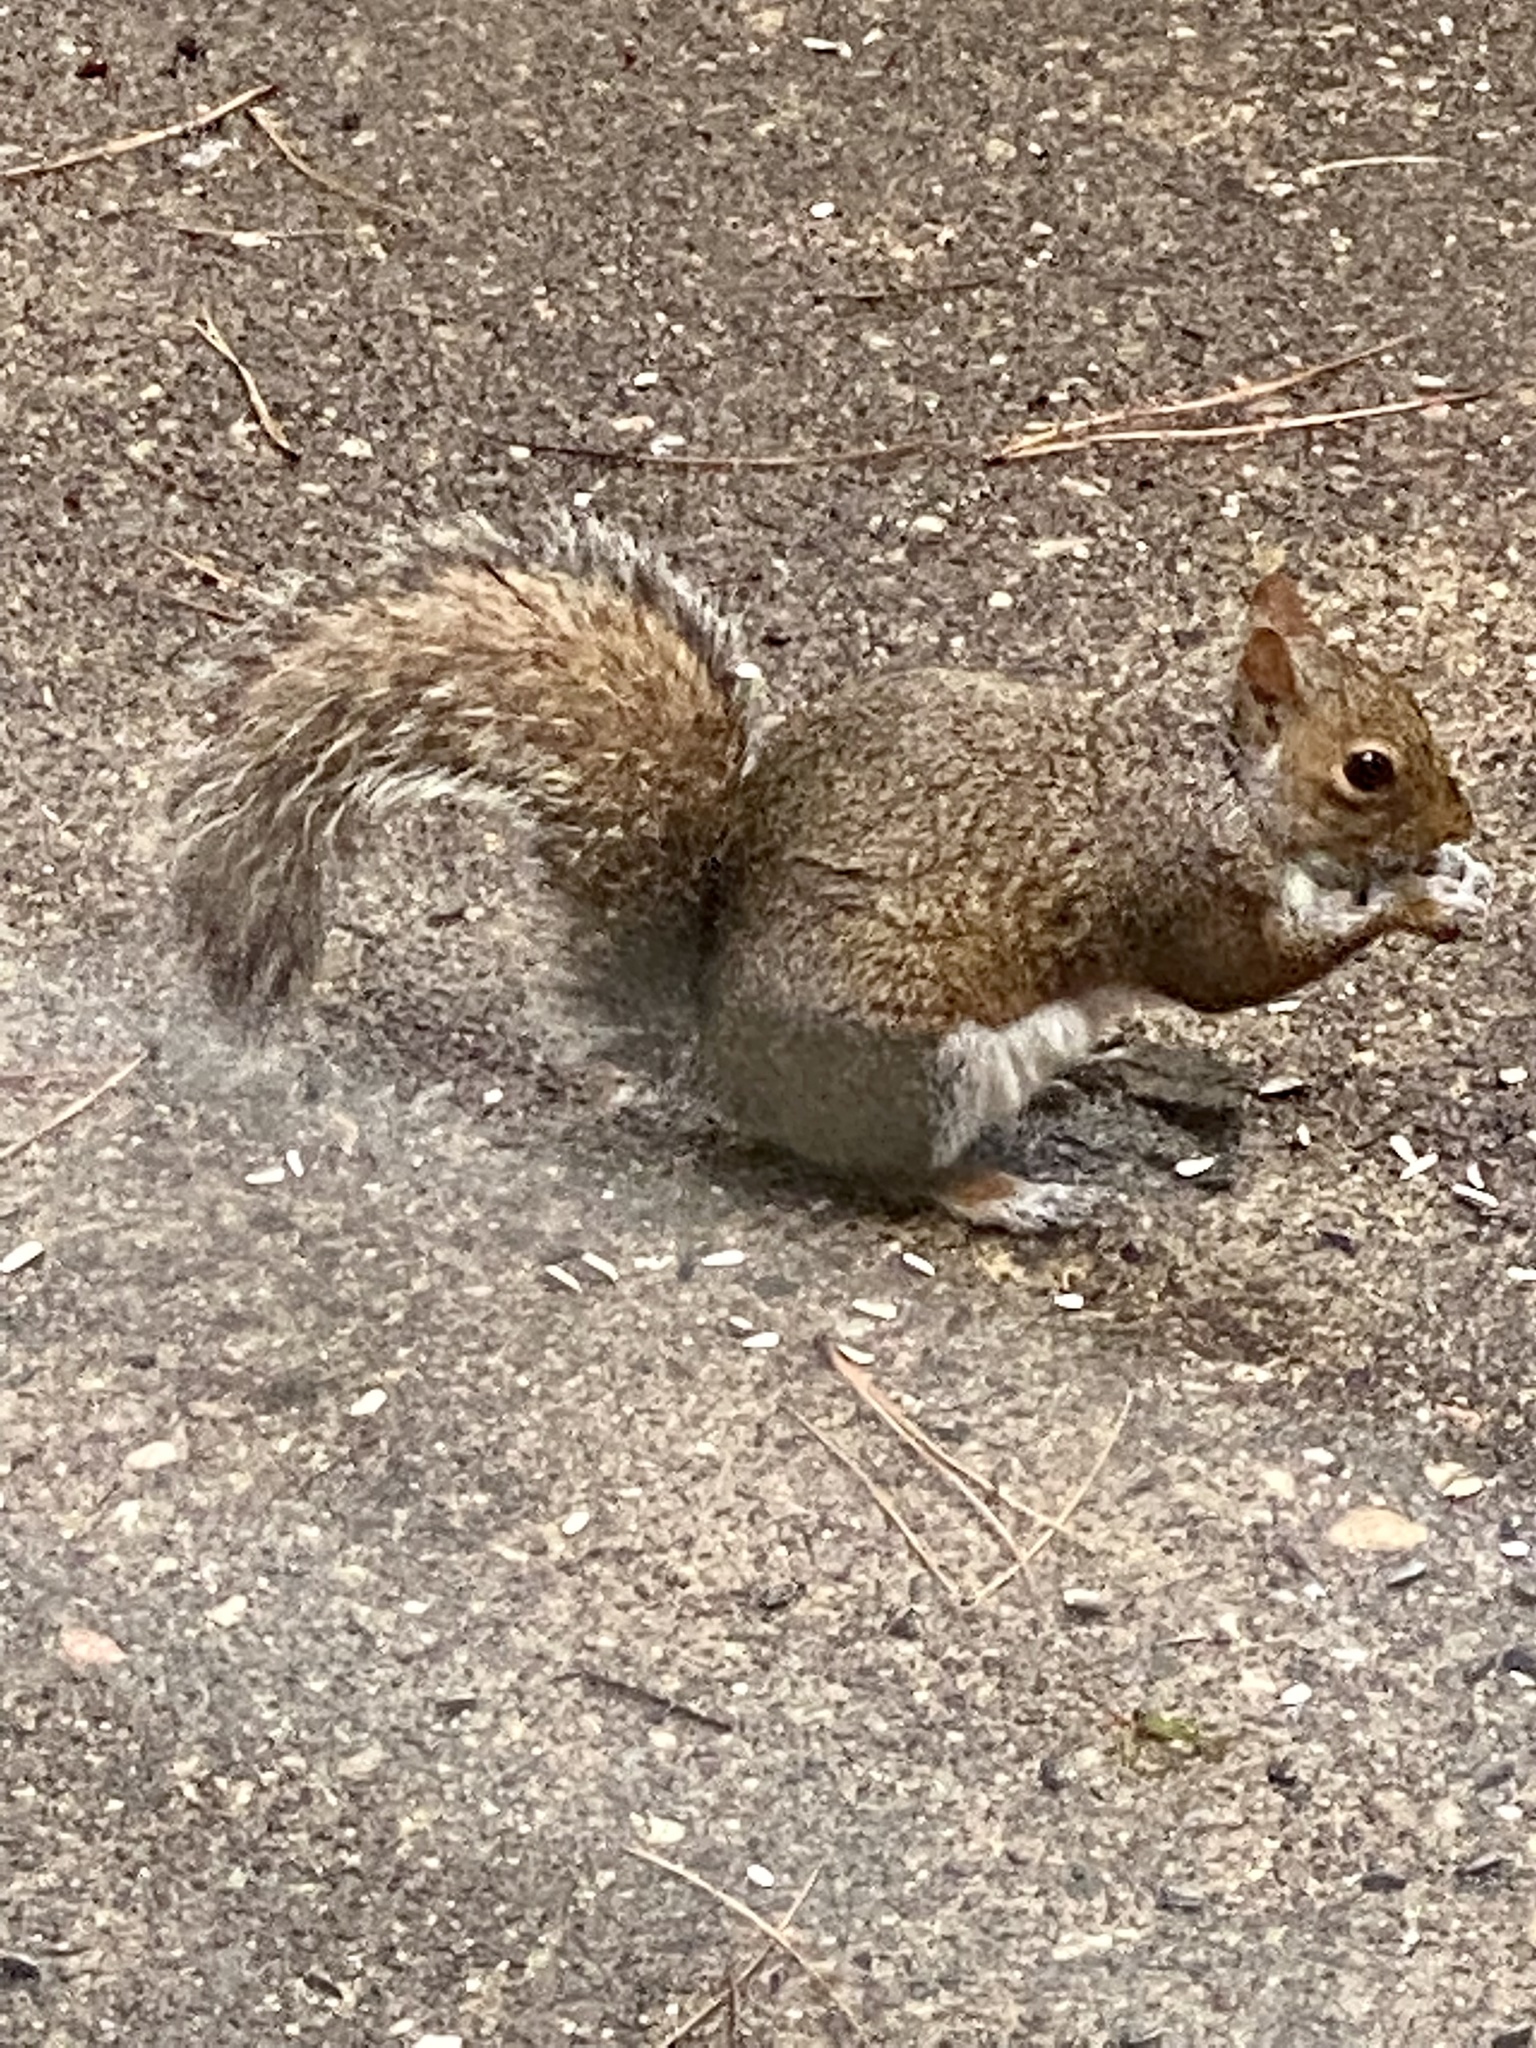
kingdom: Animalia
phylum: Chordata
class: Mammalia
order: Rodentia
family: Sciuridae
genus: Sciurus
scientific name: Sciurus carolinensis
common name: Eastern gray squirrel
